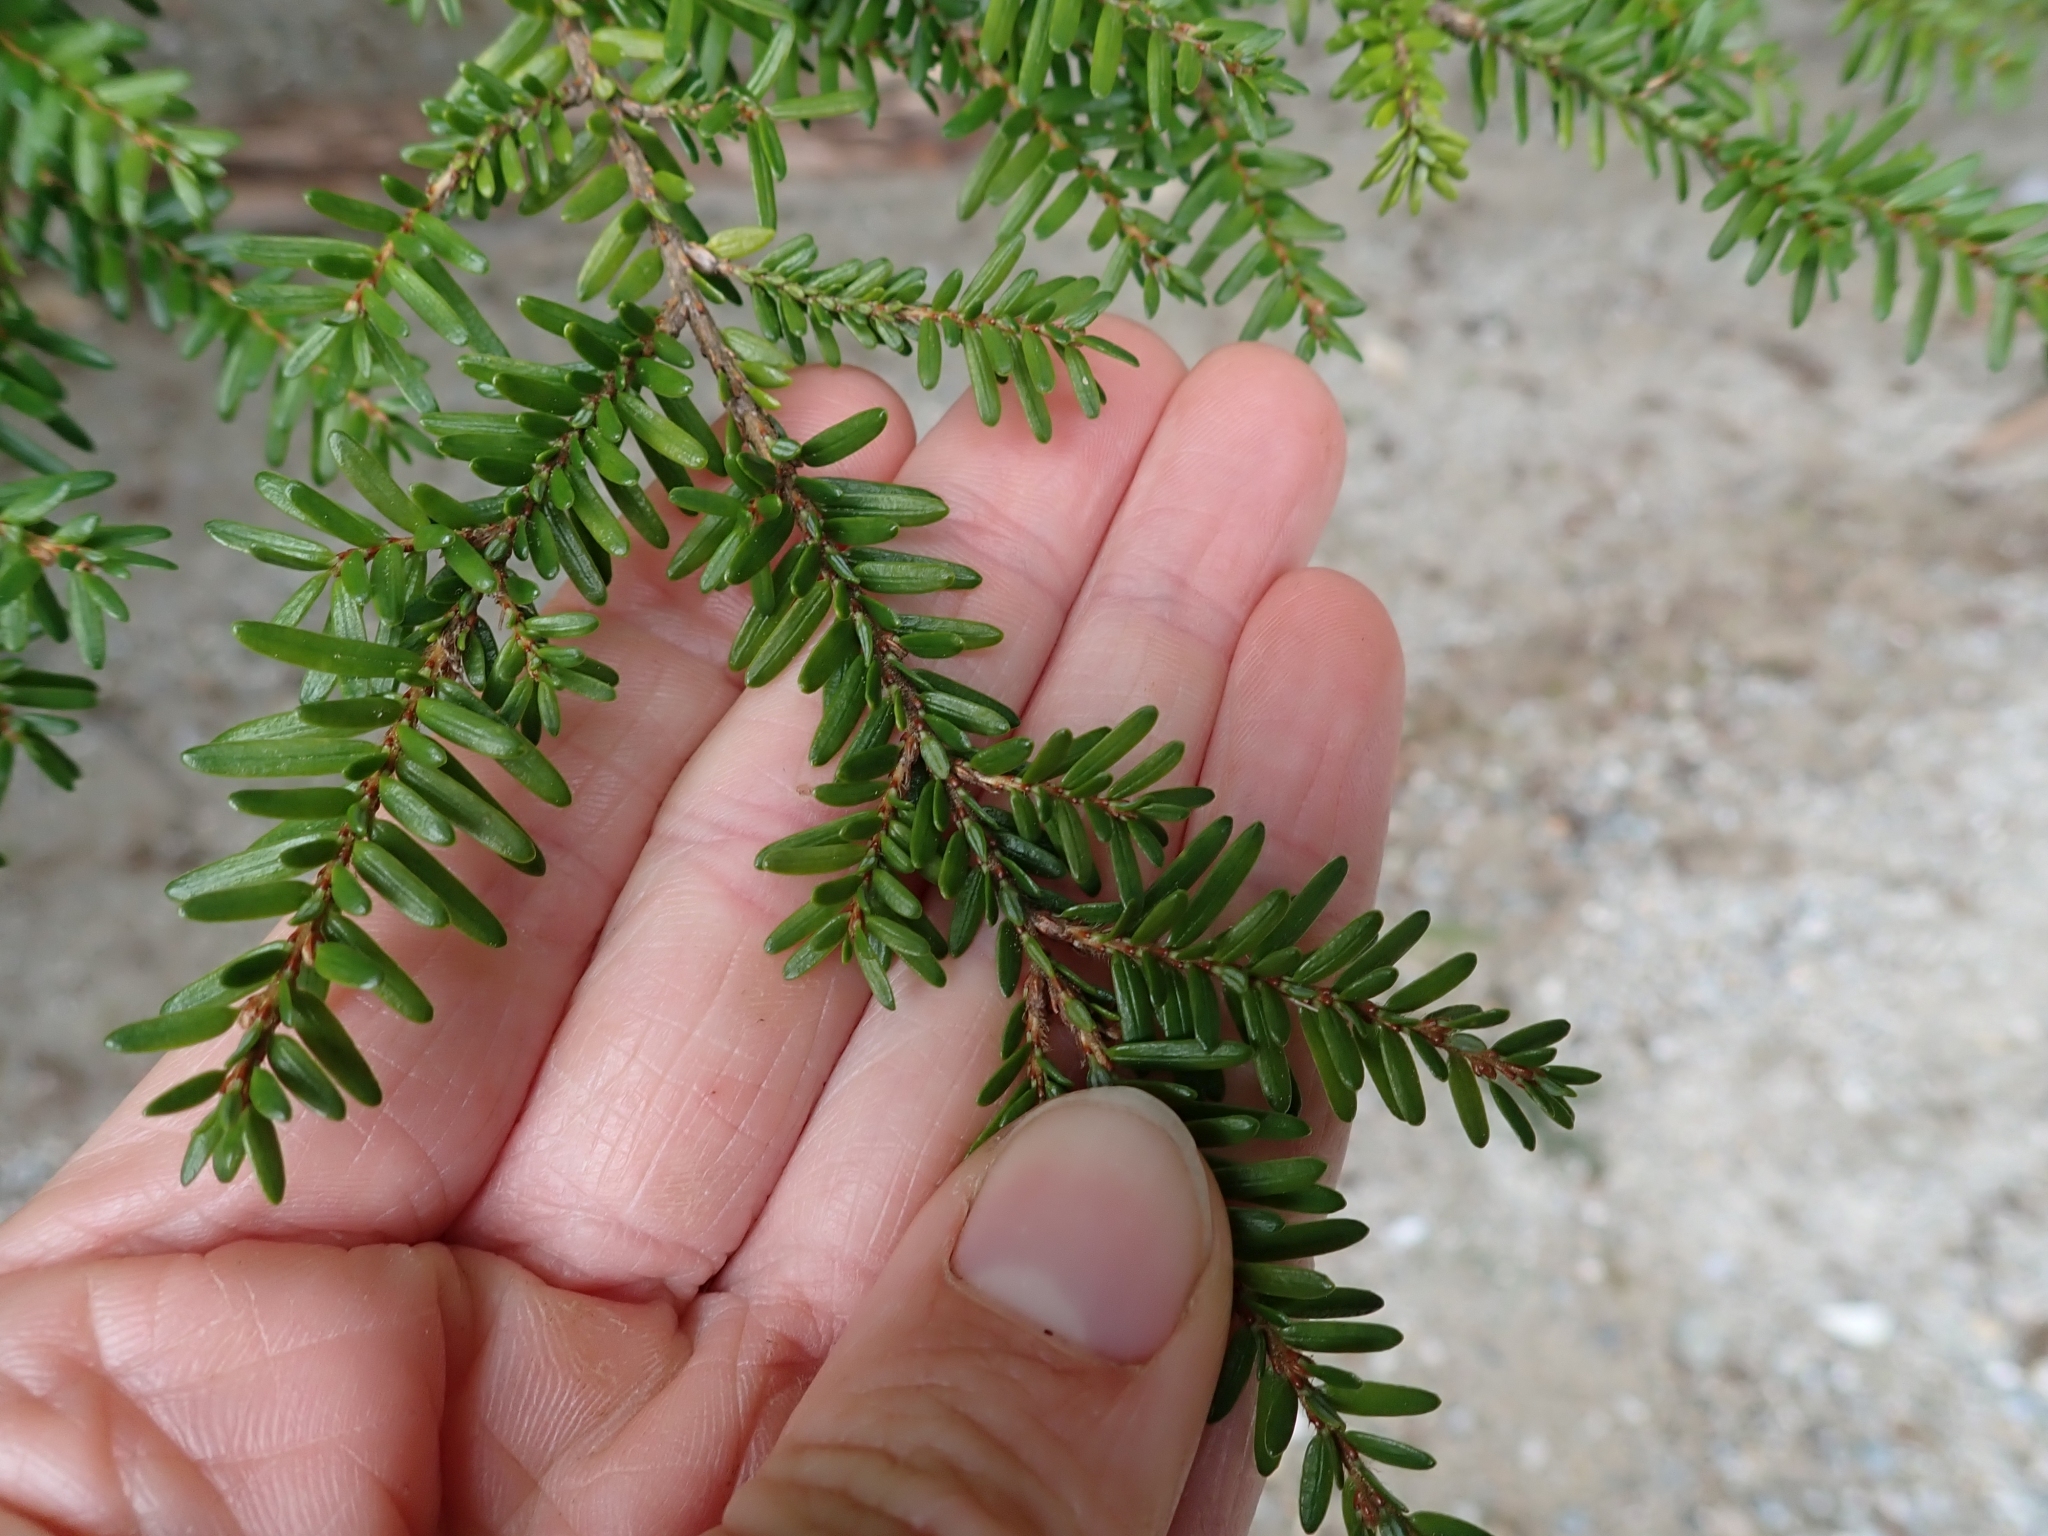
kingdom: Plantae
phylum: Tracheophyta
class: Pinopsida
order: Pinales
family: Pinaceae
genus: Tsuga
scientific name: Tsuga heterophylla
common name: Western hemlock
